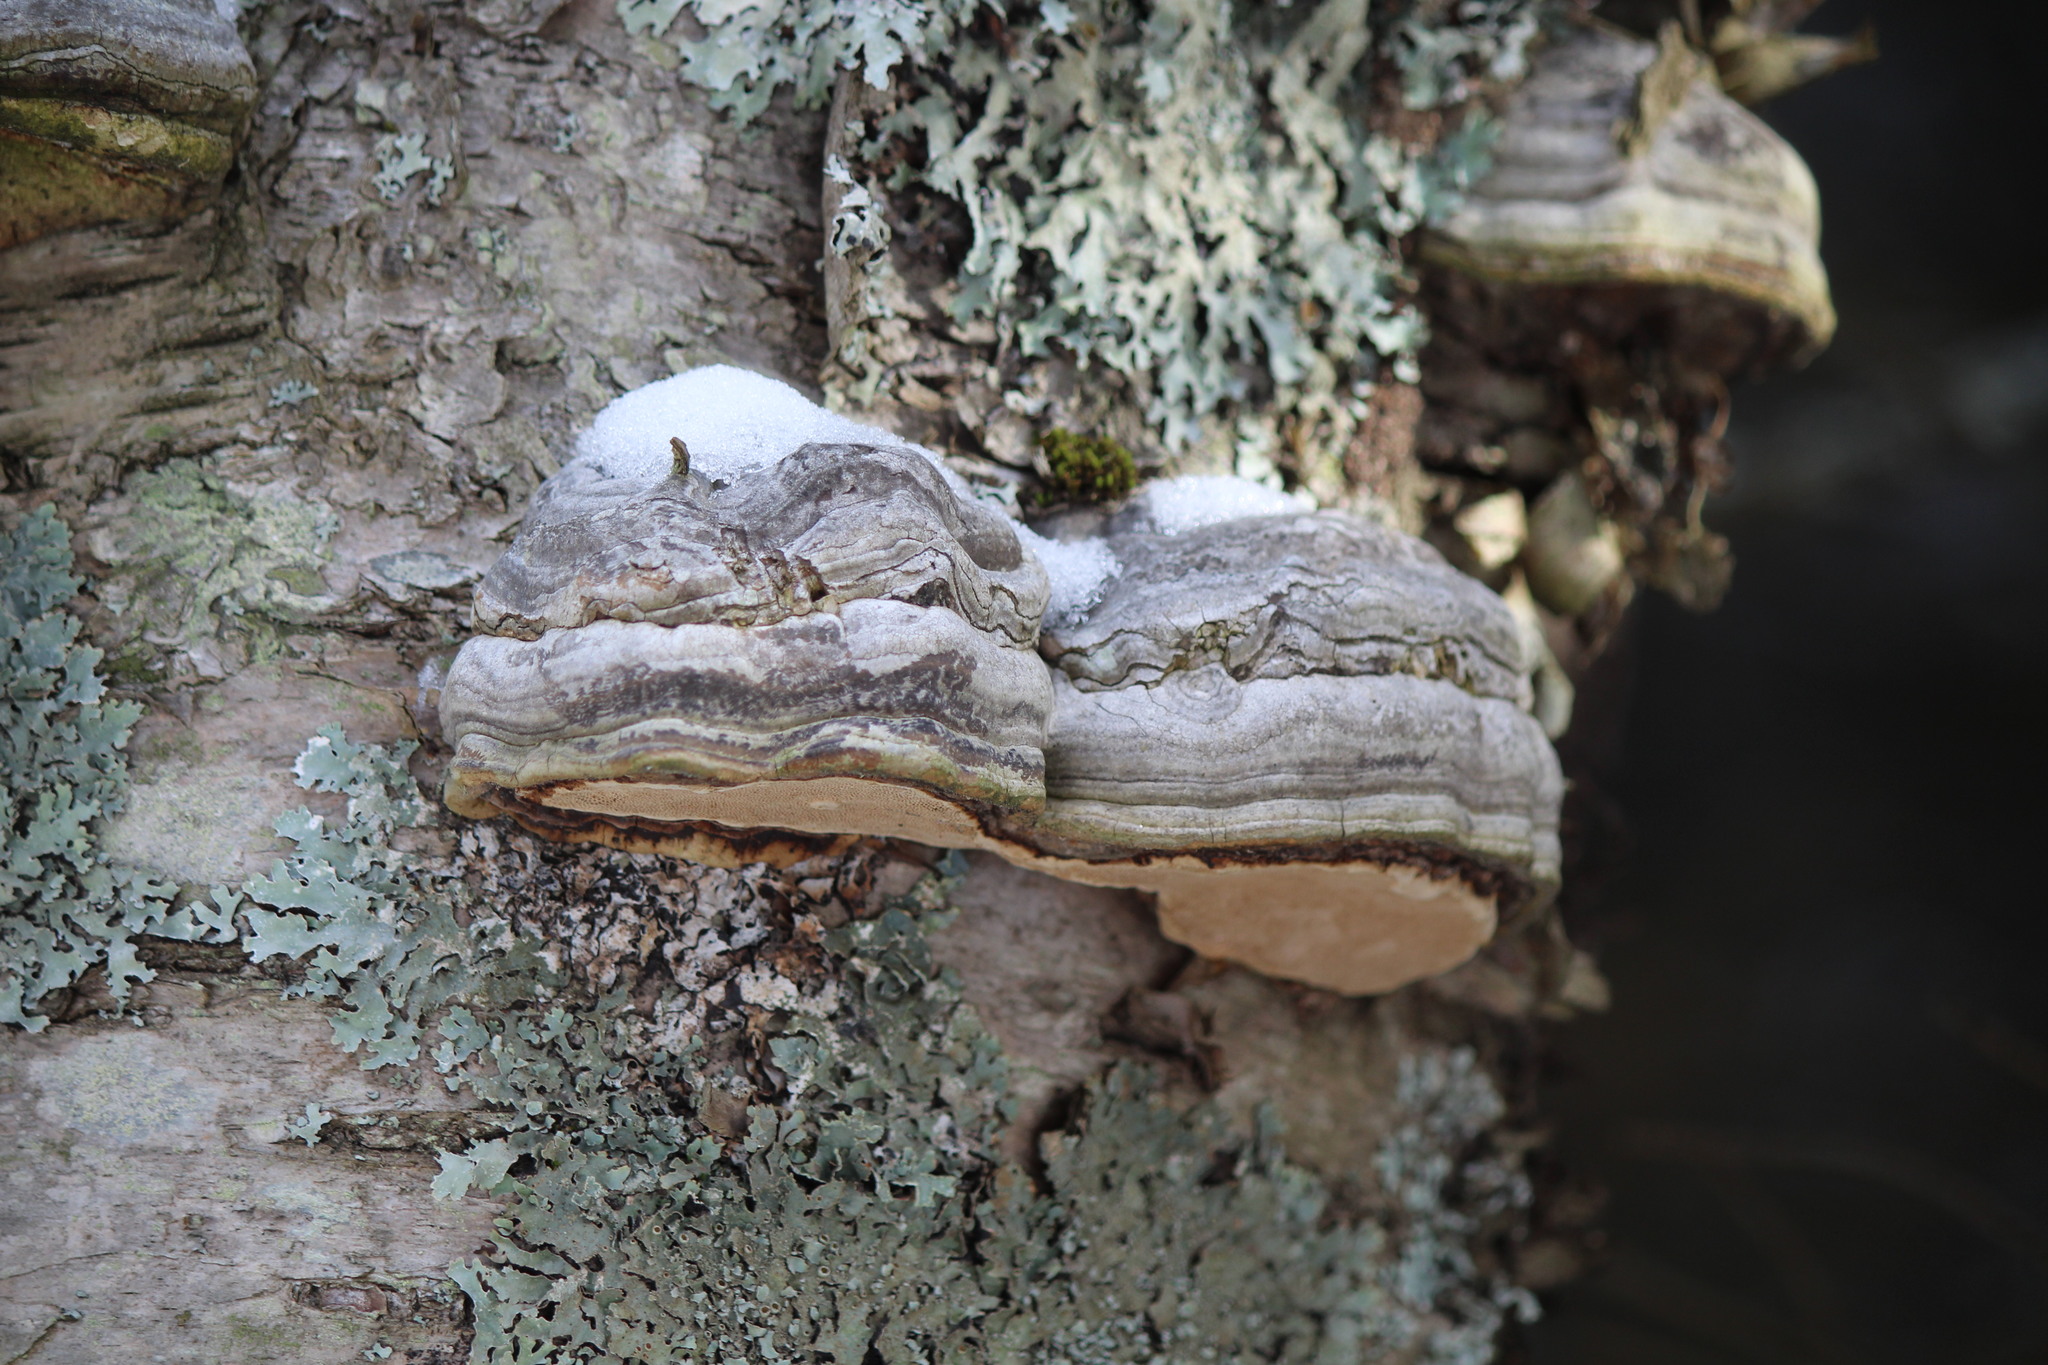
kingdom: Fungi
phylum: Basidiomycota
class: Agaricomycetes
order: Polyporales
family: Polyporaceae
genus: Fomes
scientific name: Fomes fomentarius
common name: Hoof fungus
